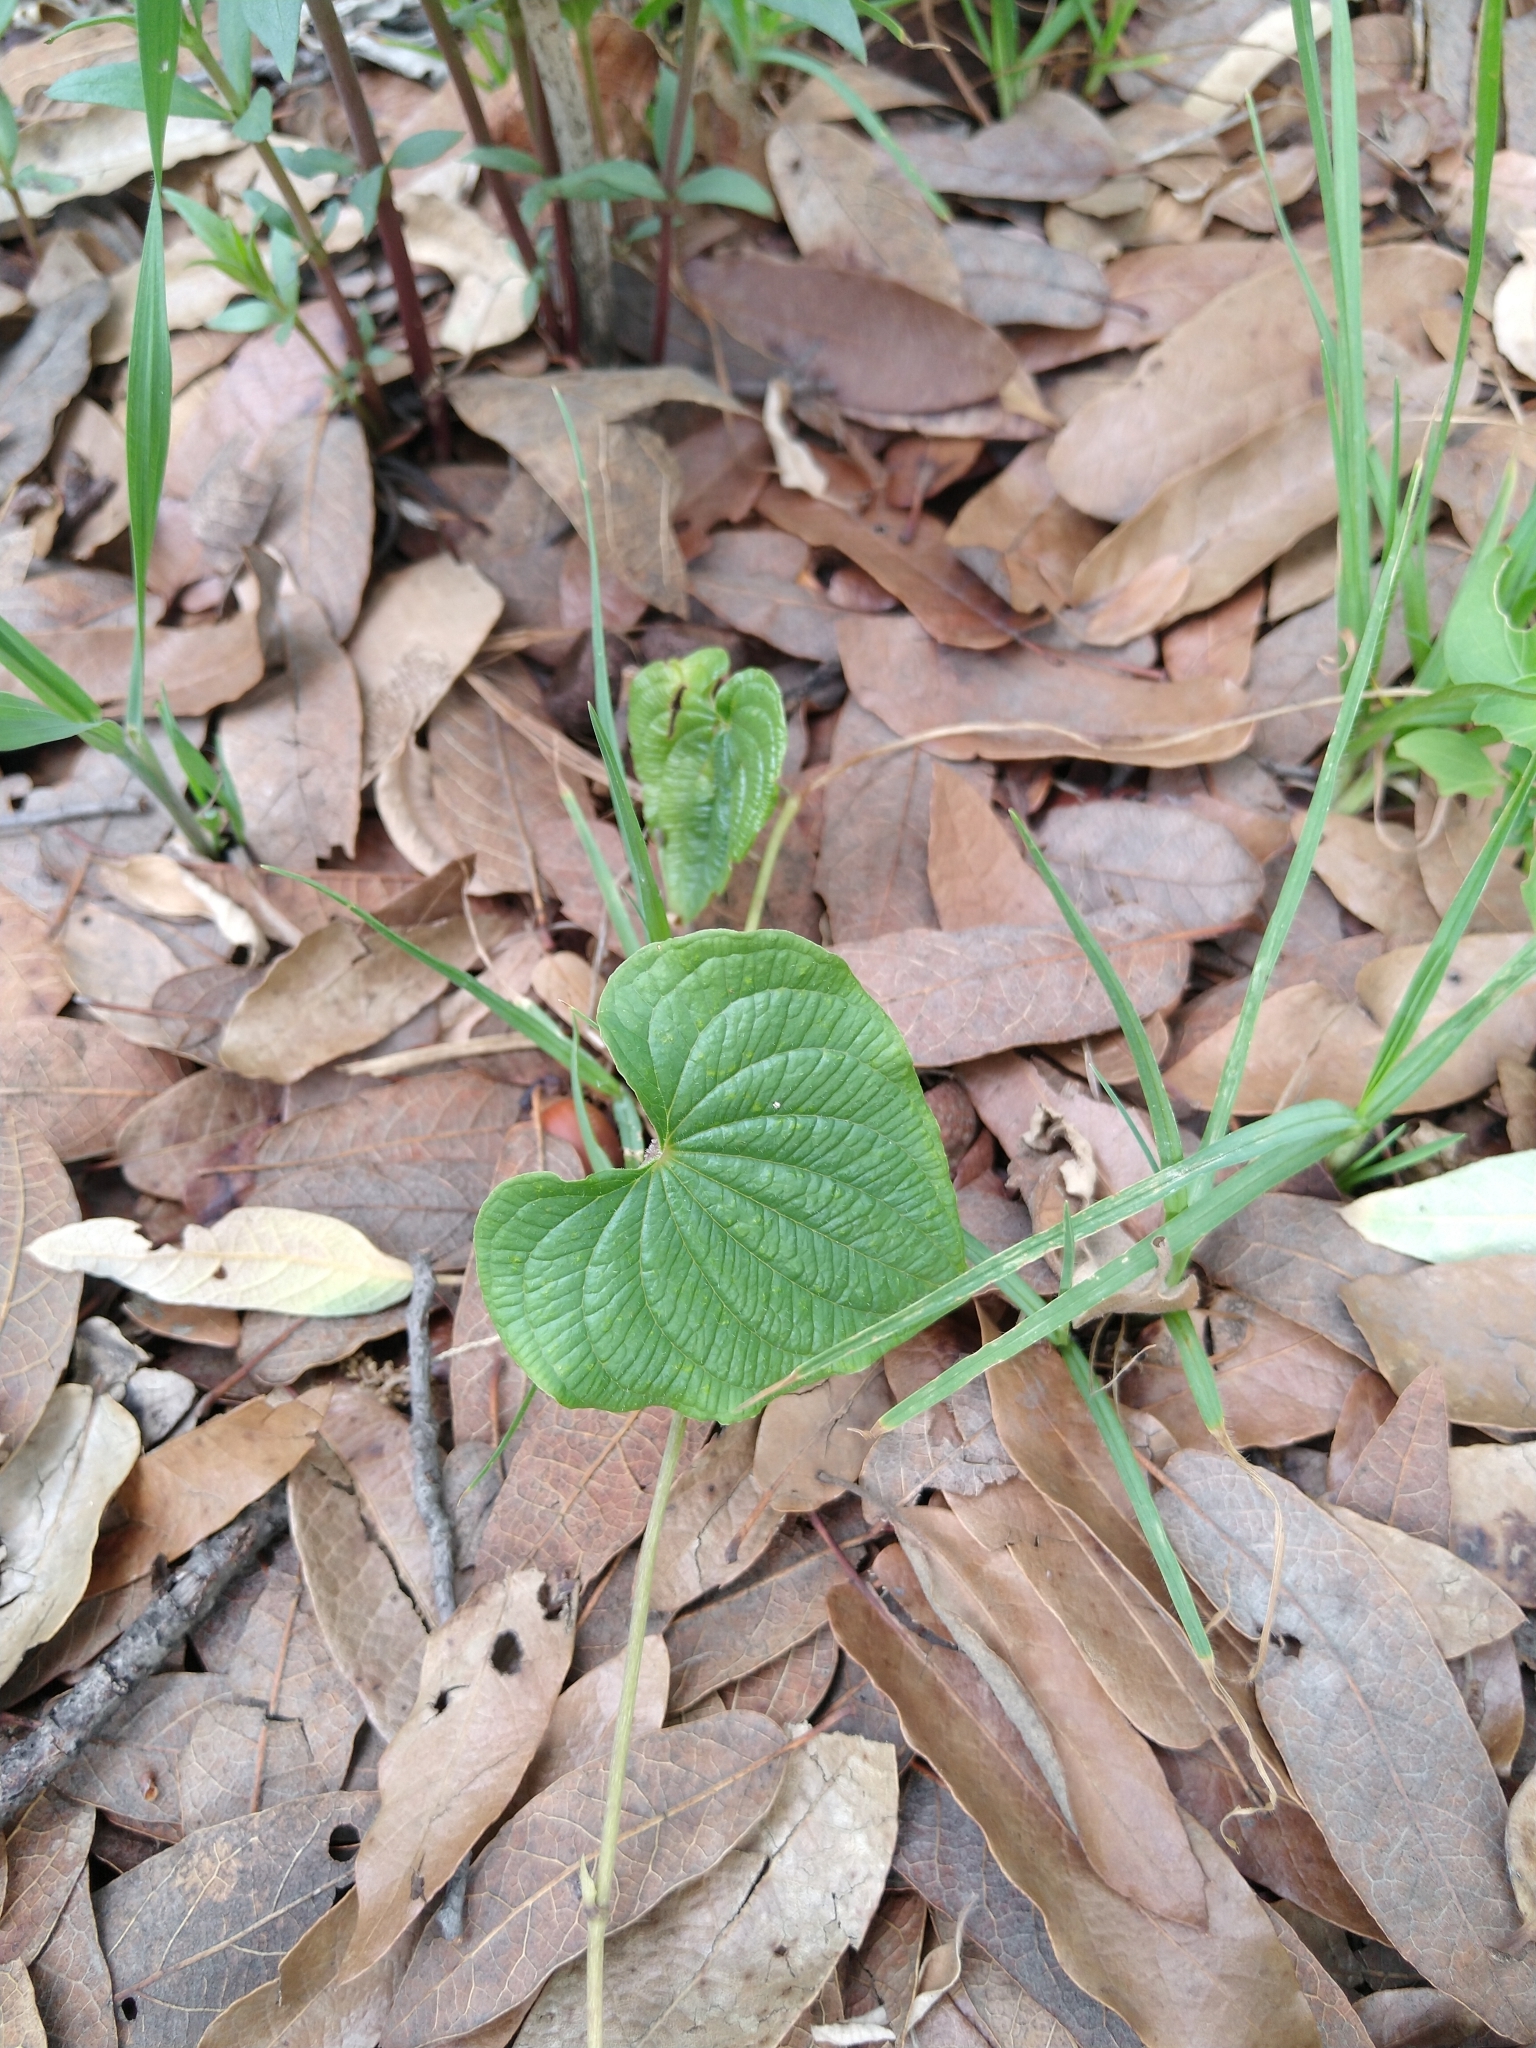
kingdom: Plantae
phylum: Tracheophyta
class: Liliopsida
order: Dioscoreales
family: Dioscoreaceae
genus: Dioscorea
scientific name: Dioscorea galeottiana
